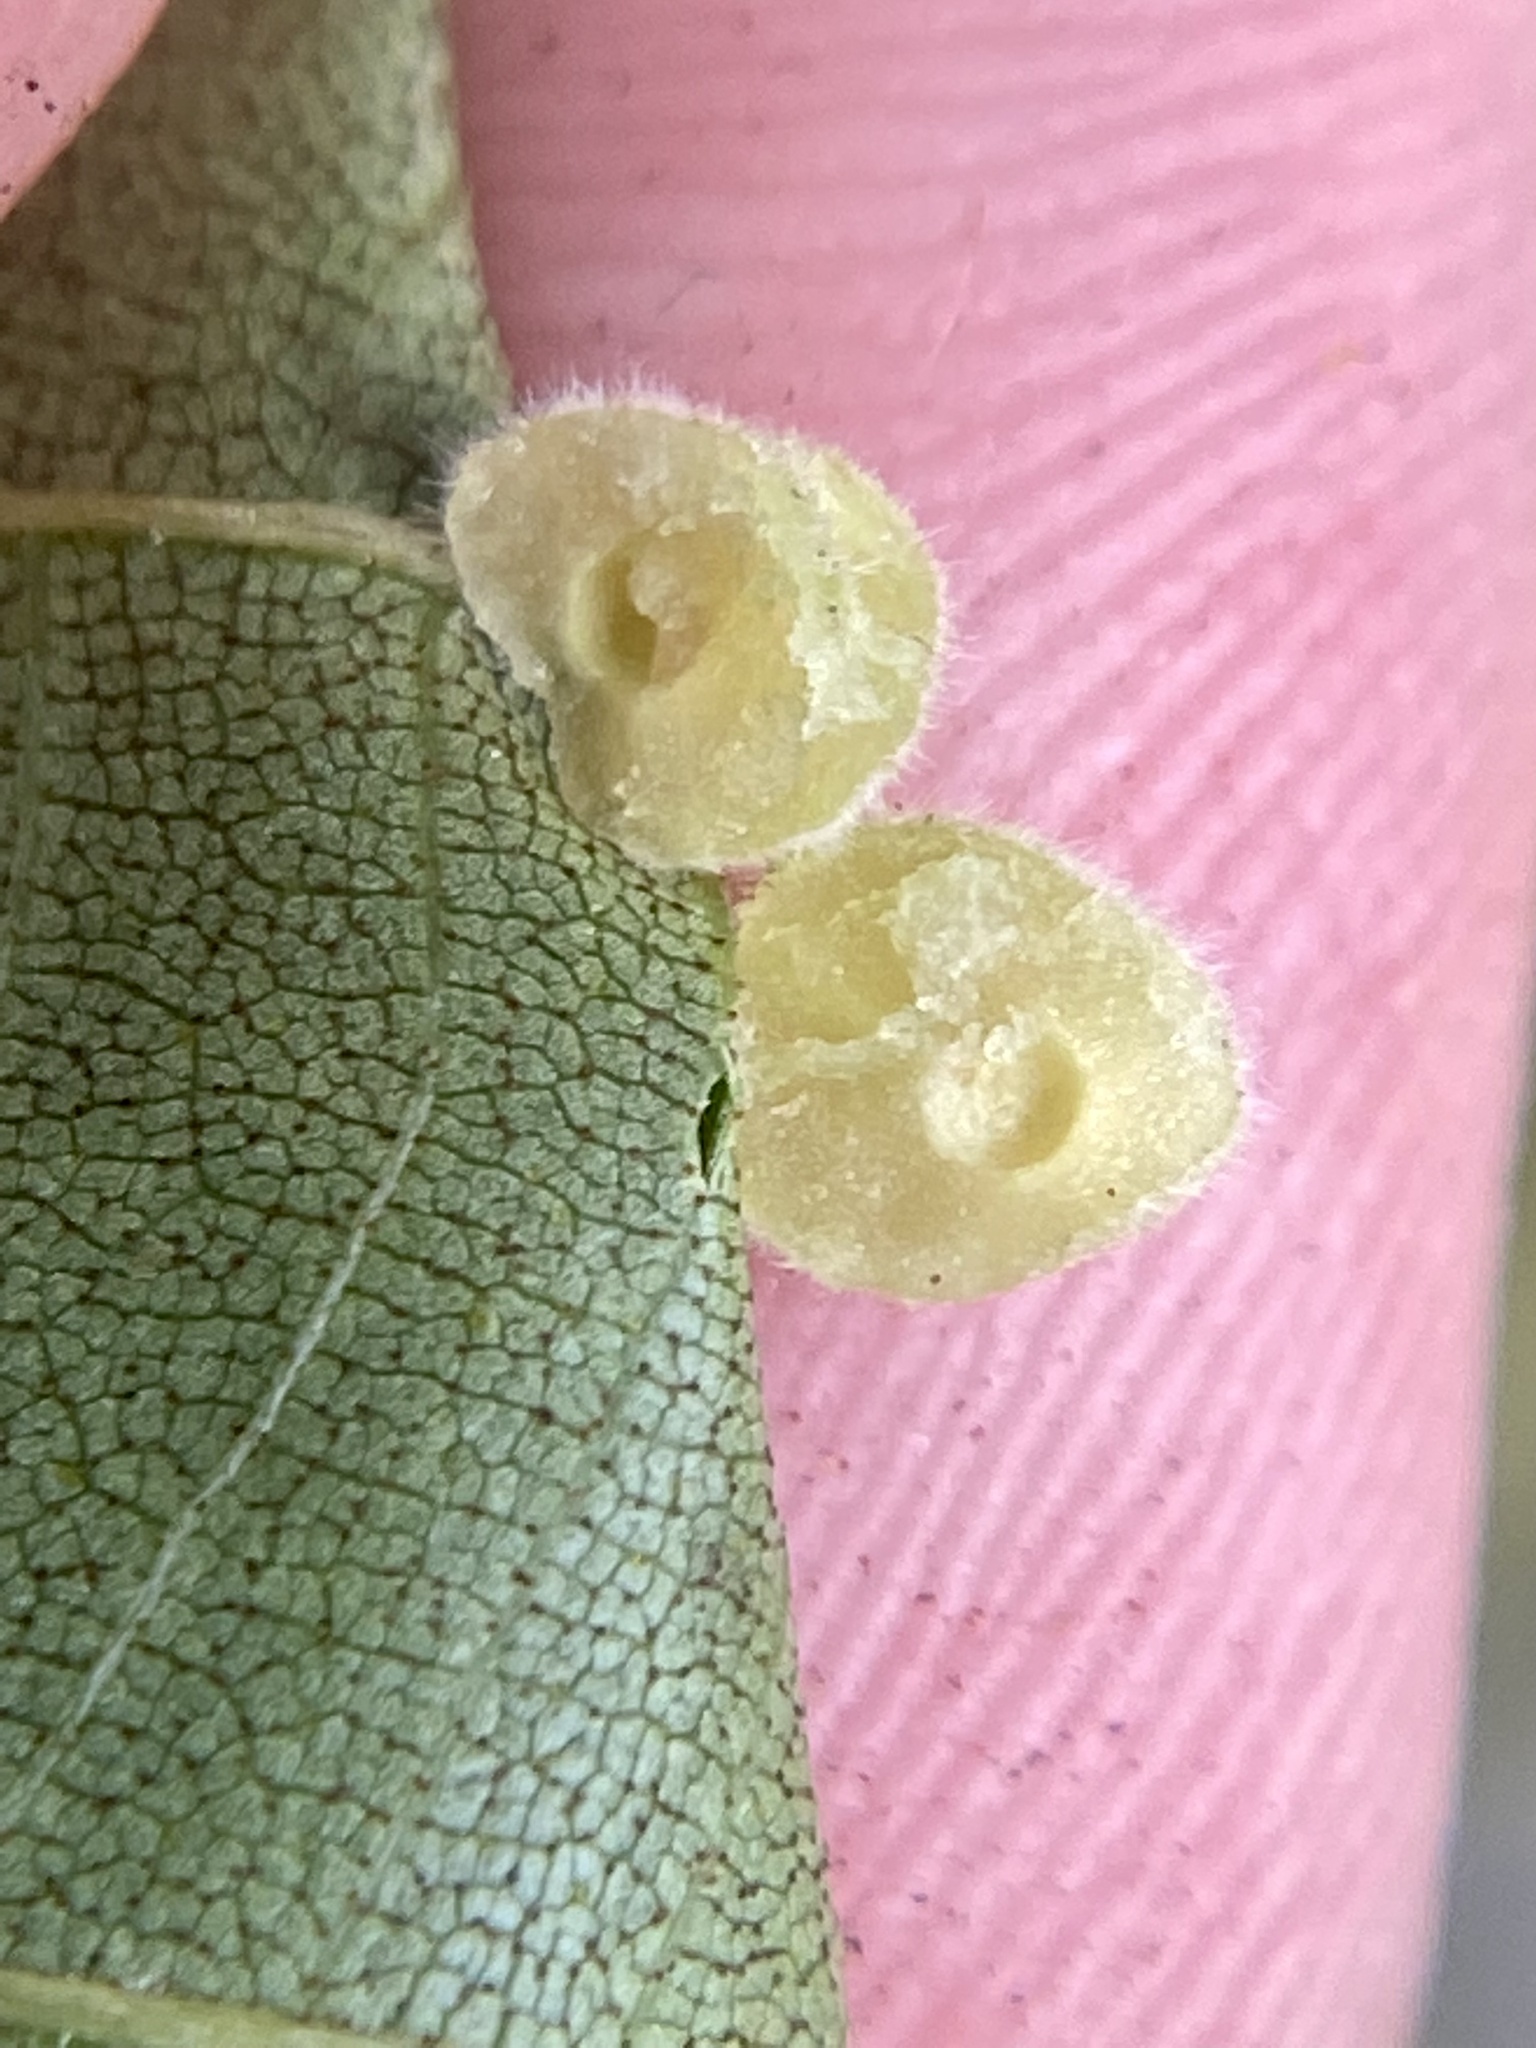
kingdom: Animalia
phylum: Arthropoda
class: Insecta
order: Diptera
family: Cecidomyiidae
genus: Caryomyia
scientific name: Caryomyia persicoides
